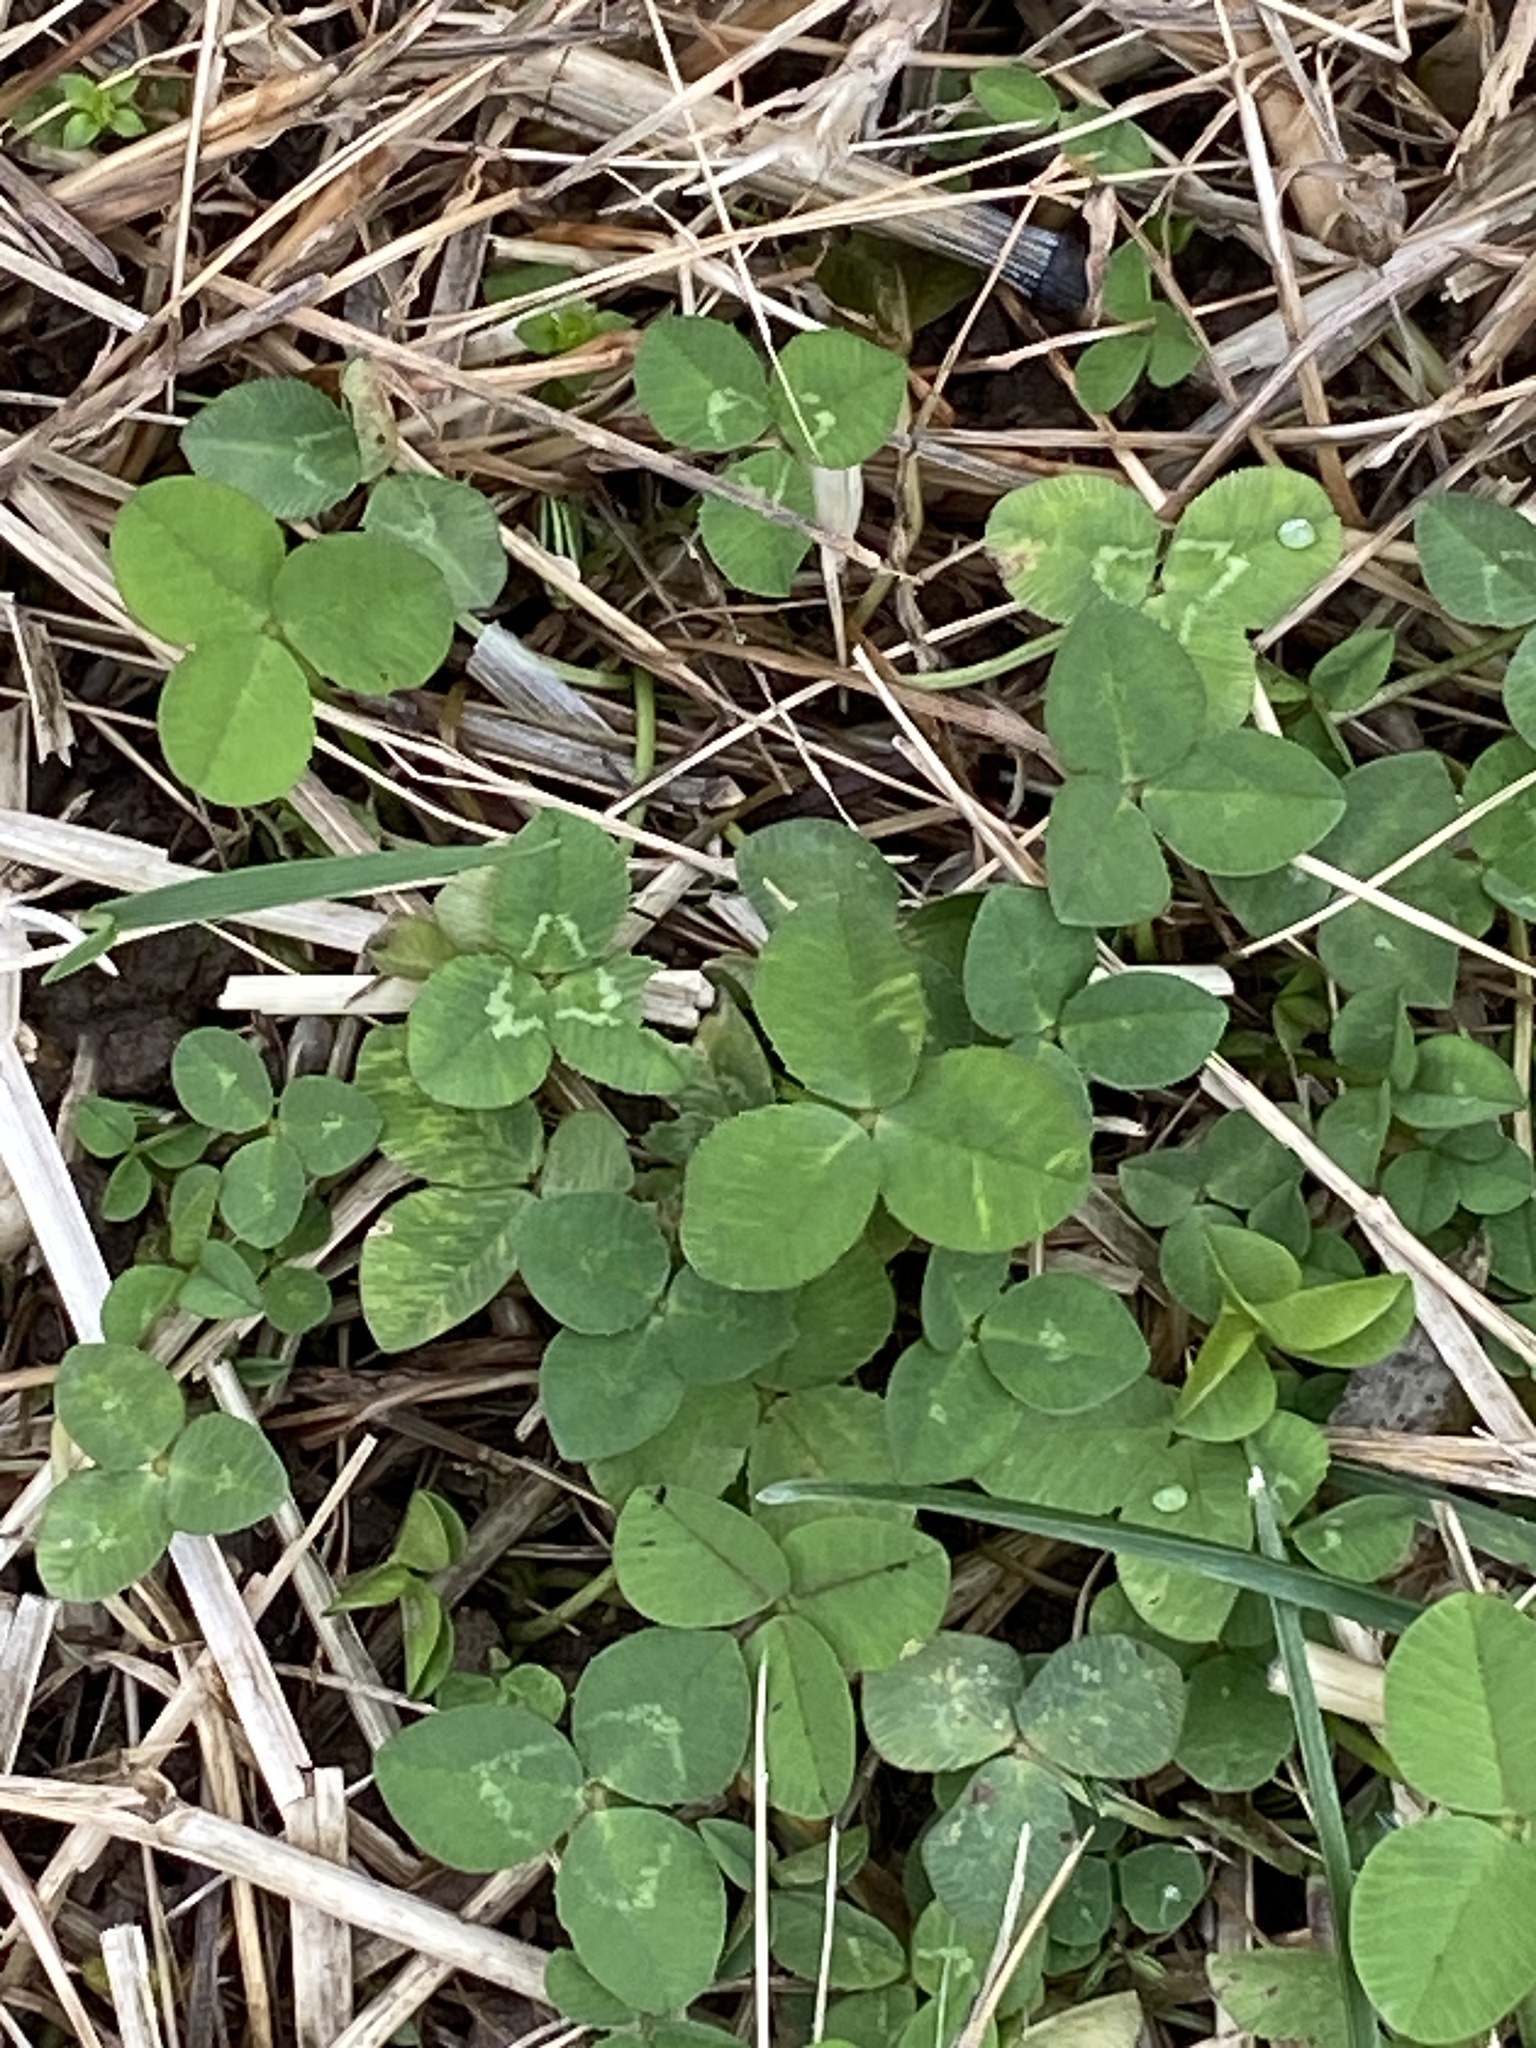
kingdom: Plantae
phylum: Tracheophyta
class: Magnoliopsida
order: Fabales
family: Fabaceae
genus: Trifolium
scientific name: Trifolium repens
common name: White clover
